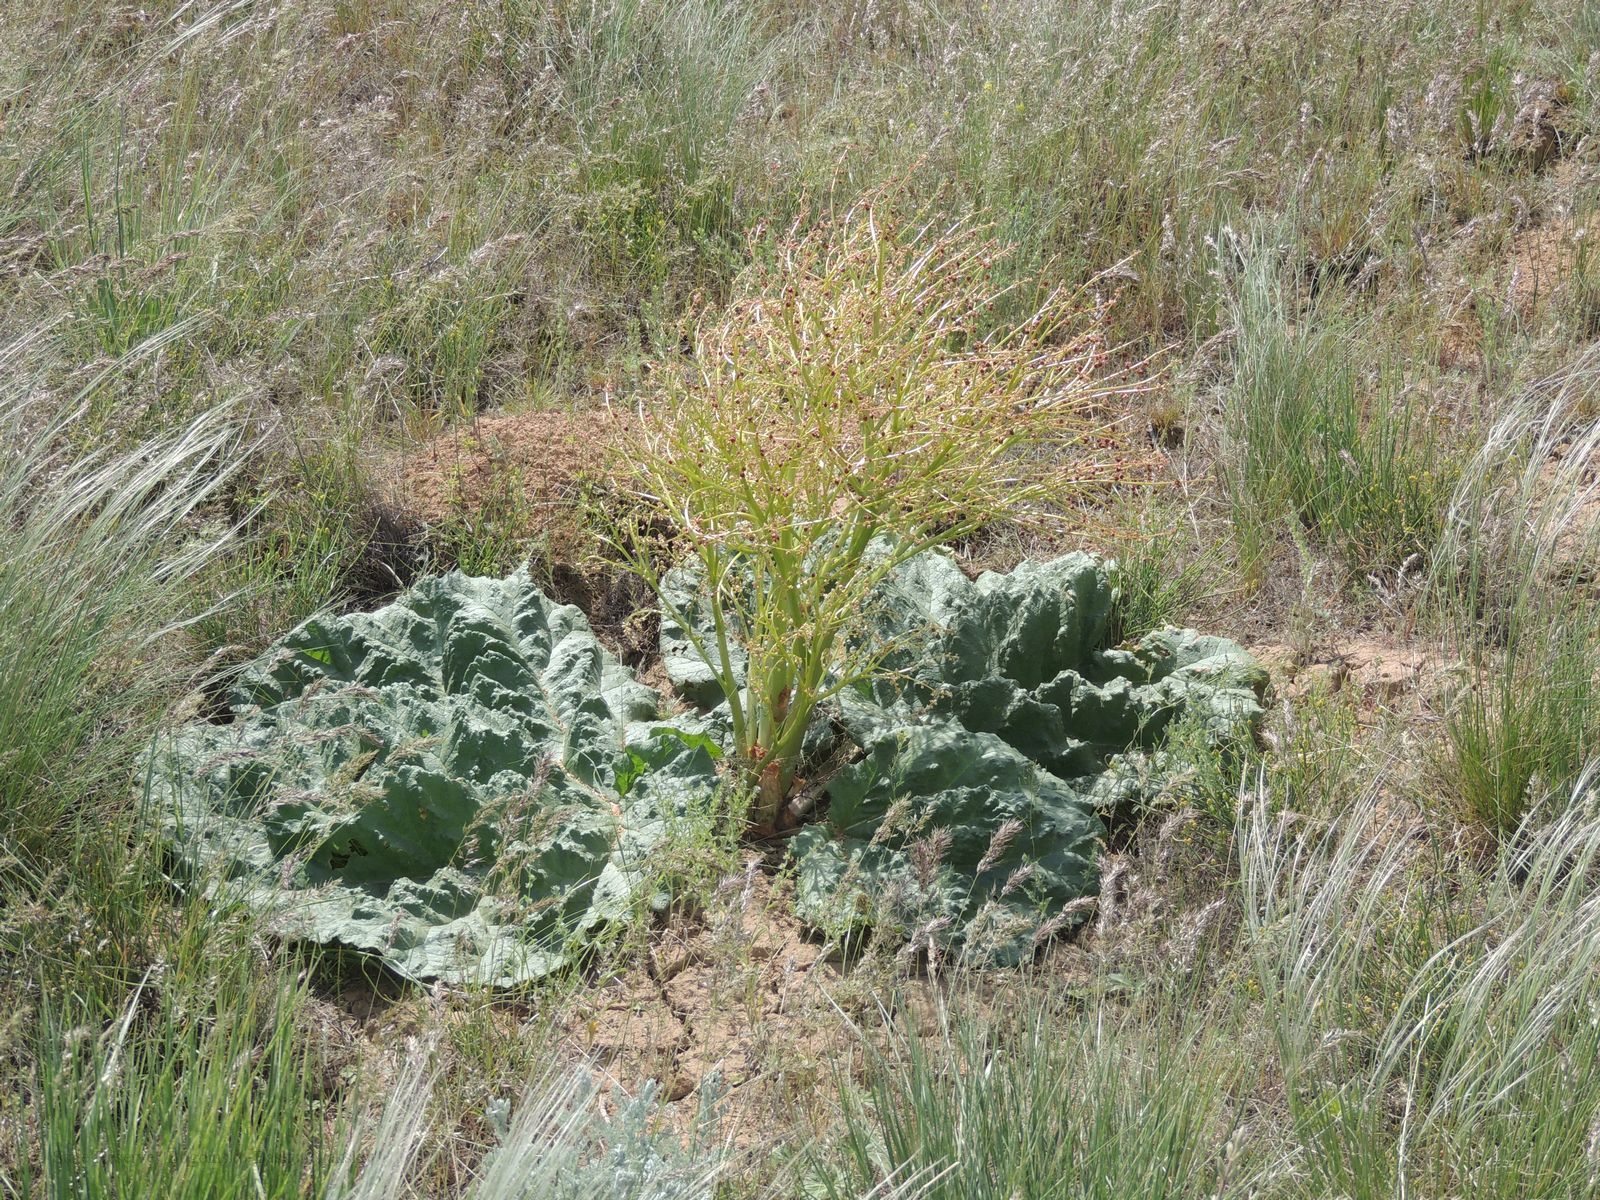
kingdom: Plantae
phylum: Tracheophyta
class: Magnoliopsida
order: Caryophyllales
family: Polygonaceae
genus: Rheum
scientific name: Rheum tataricum
